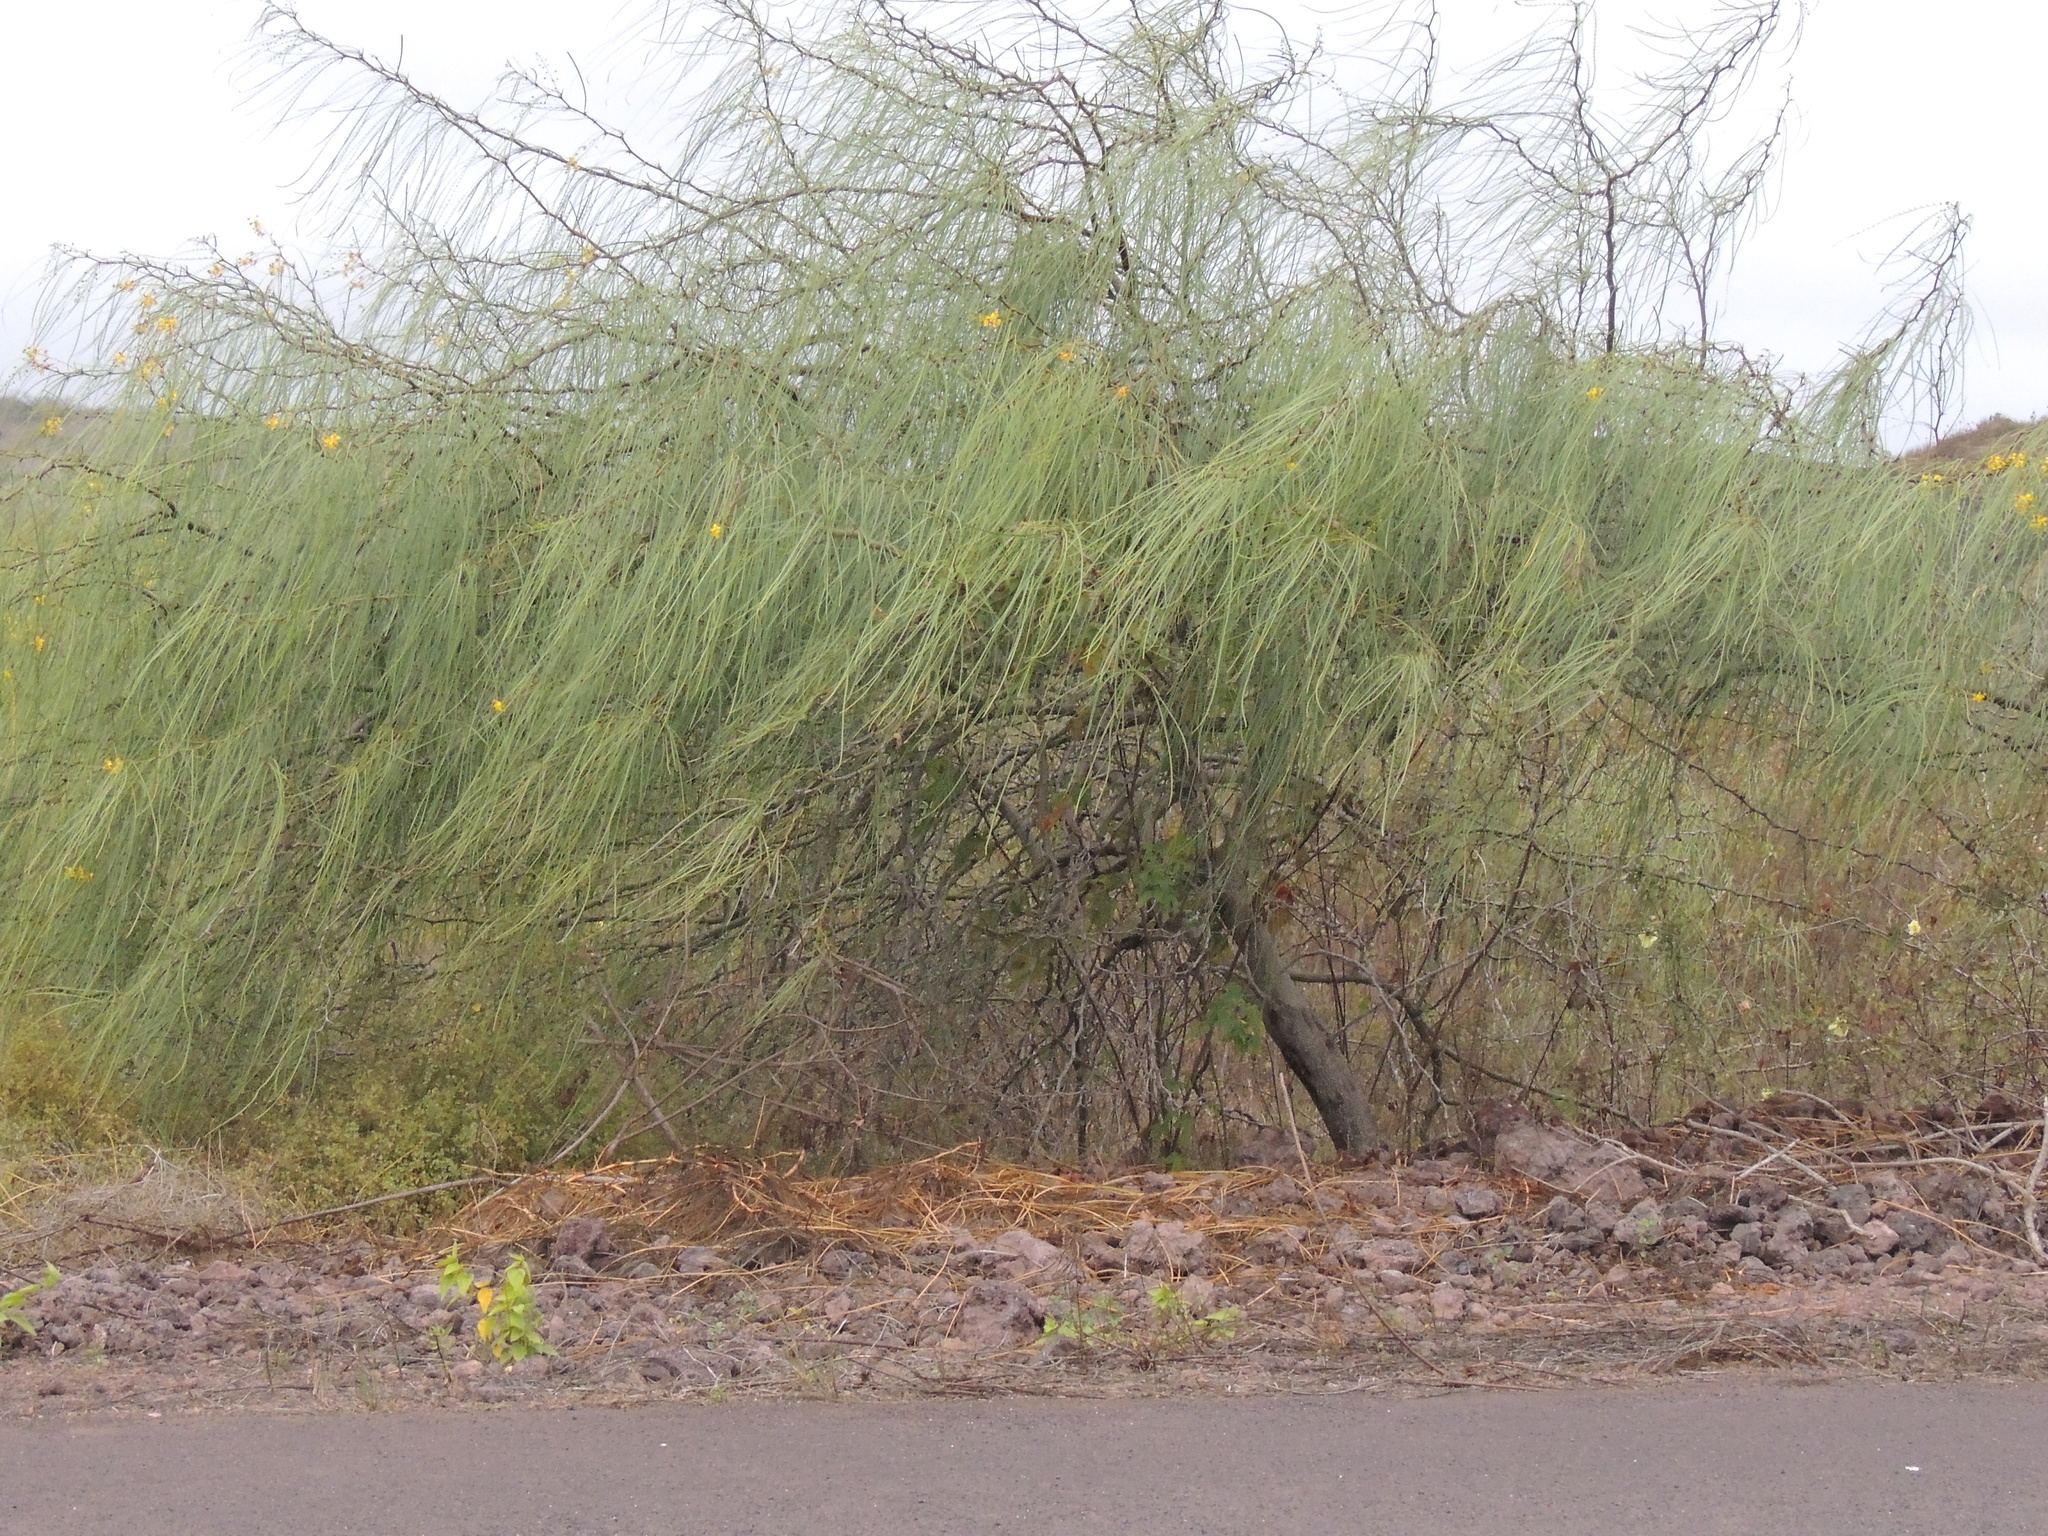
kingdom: Plantae
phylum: Tracheophyta
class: Magnoliopsida
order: Fabales
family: Fabaceae
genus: Parkinsonia
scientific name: Parkinsonia aculeata
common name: Jerusalem thorn
